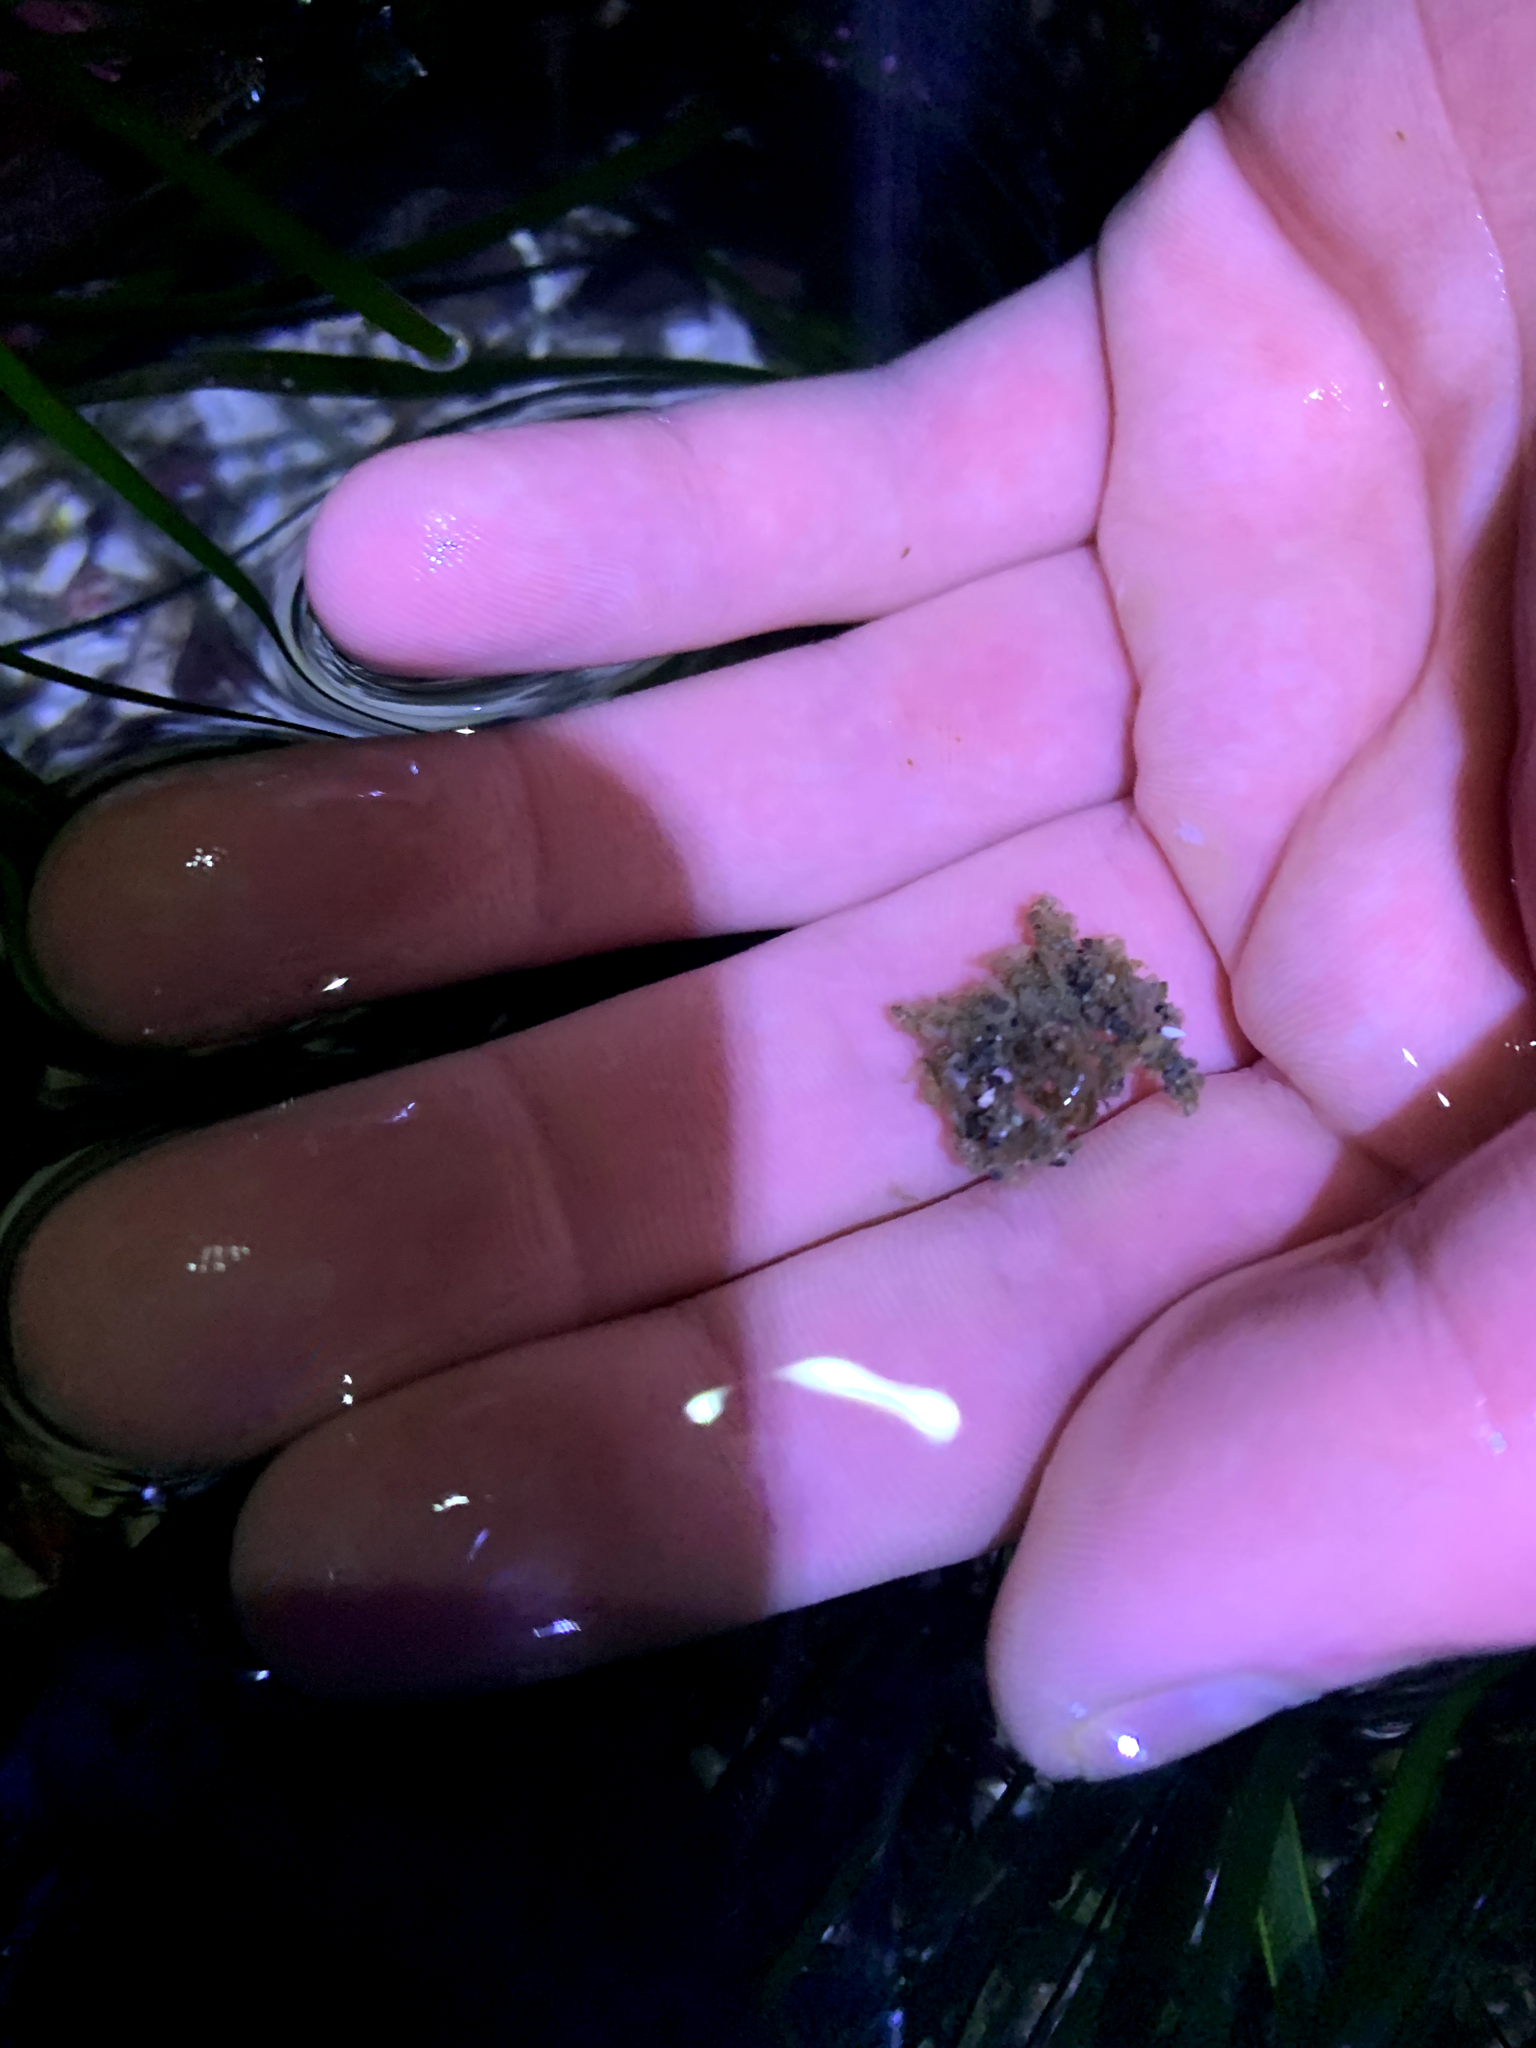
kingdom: Animalia
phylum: Arthropoda
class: Malacostraca
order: Decapoda
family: Oregoniidae
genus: Oregonia
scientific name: Oregonia gracilis
